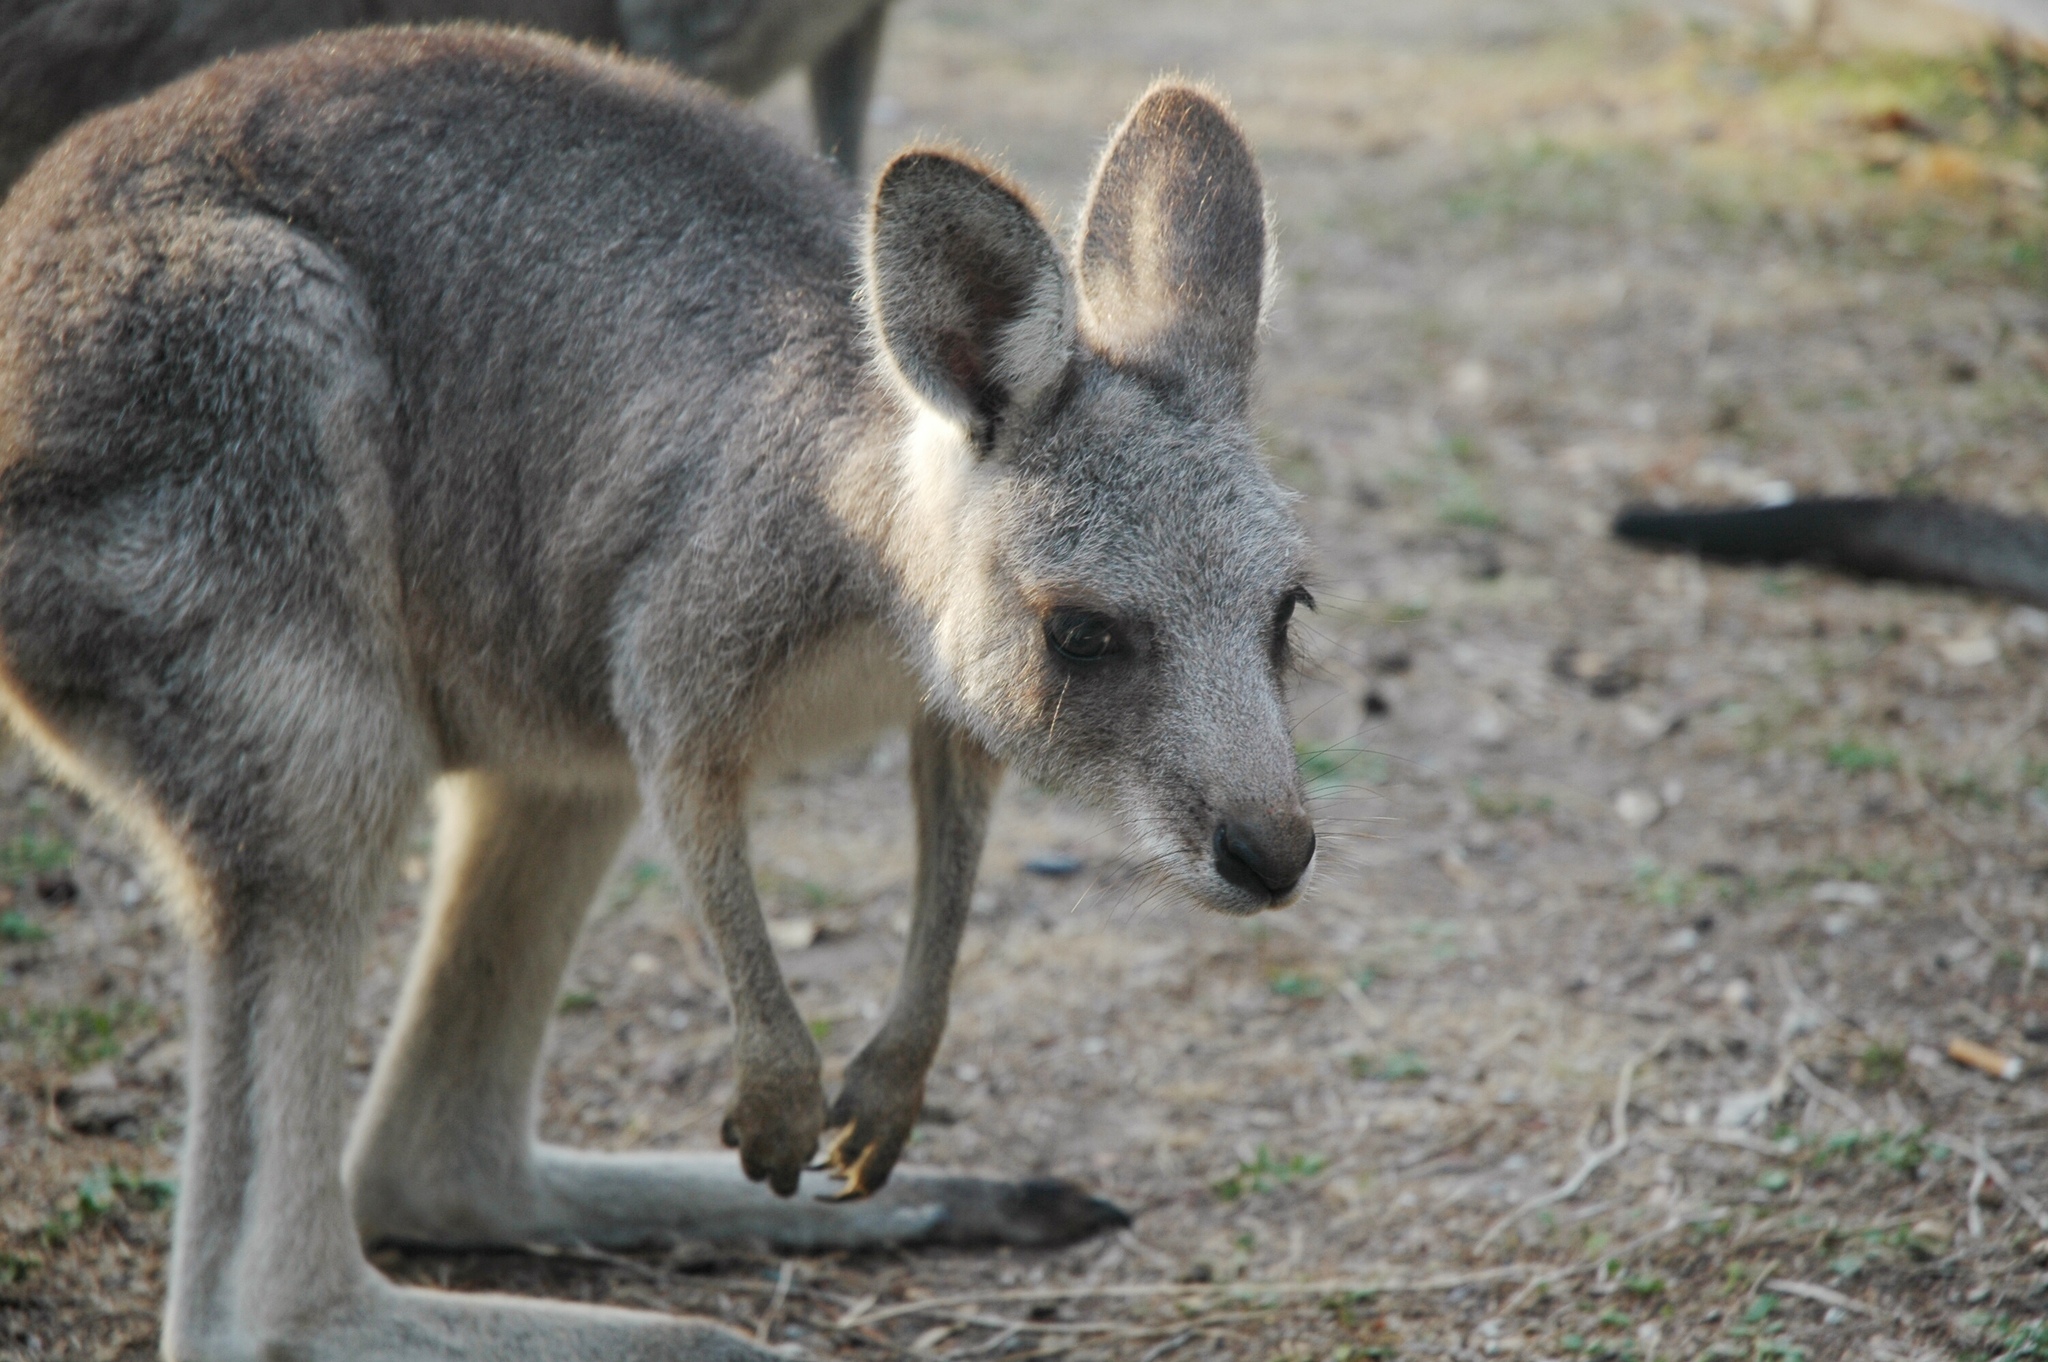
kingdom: Animalia
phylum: Chordata
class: Mammalia
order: Diprotodontia
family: Macropodidae
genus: Macropus
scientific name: Macropus giganteus
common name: Eastern grey kangaroo
